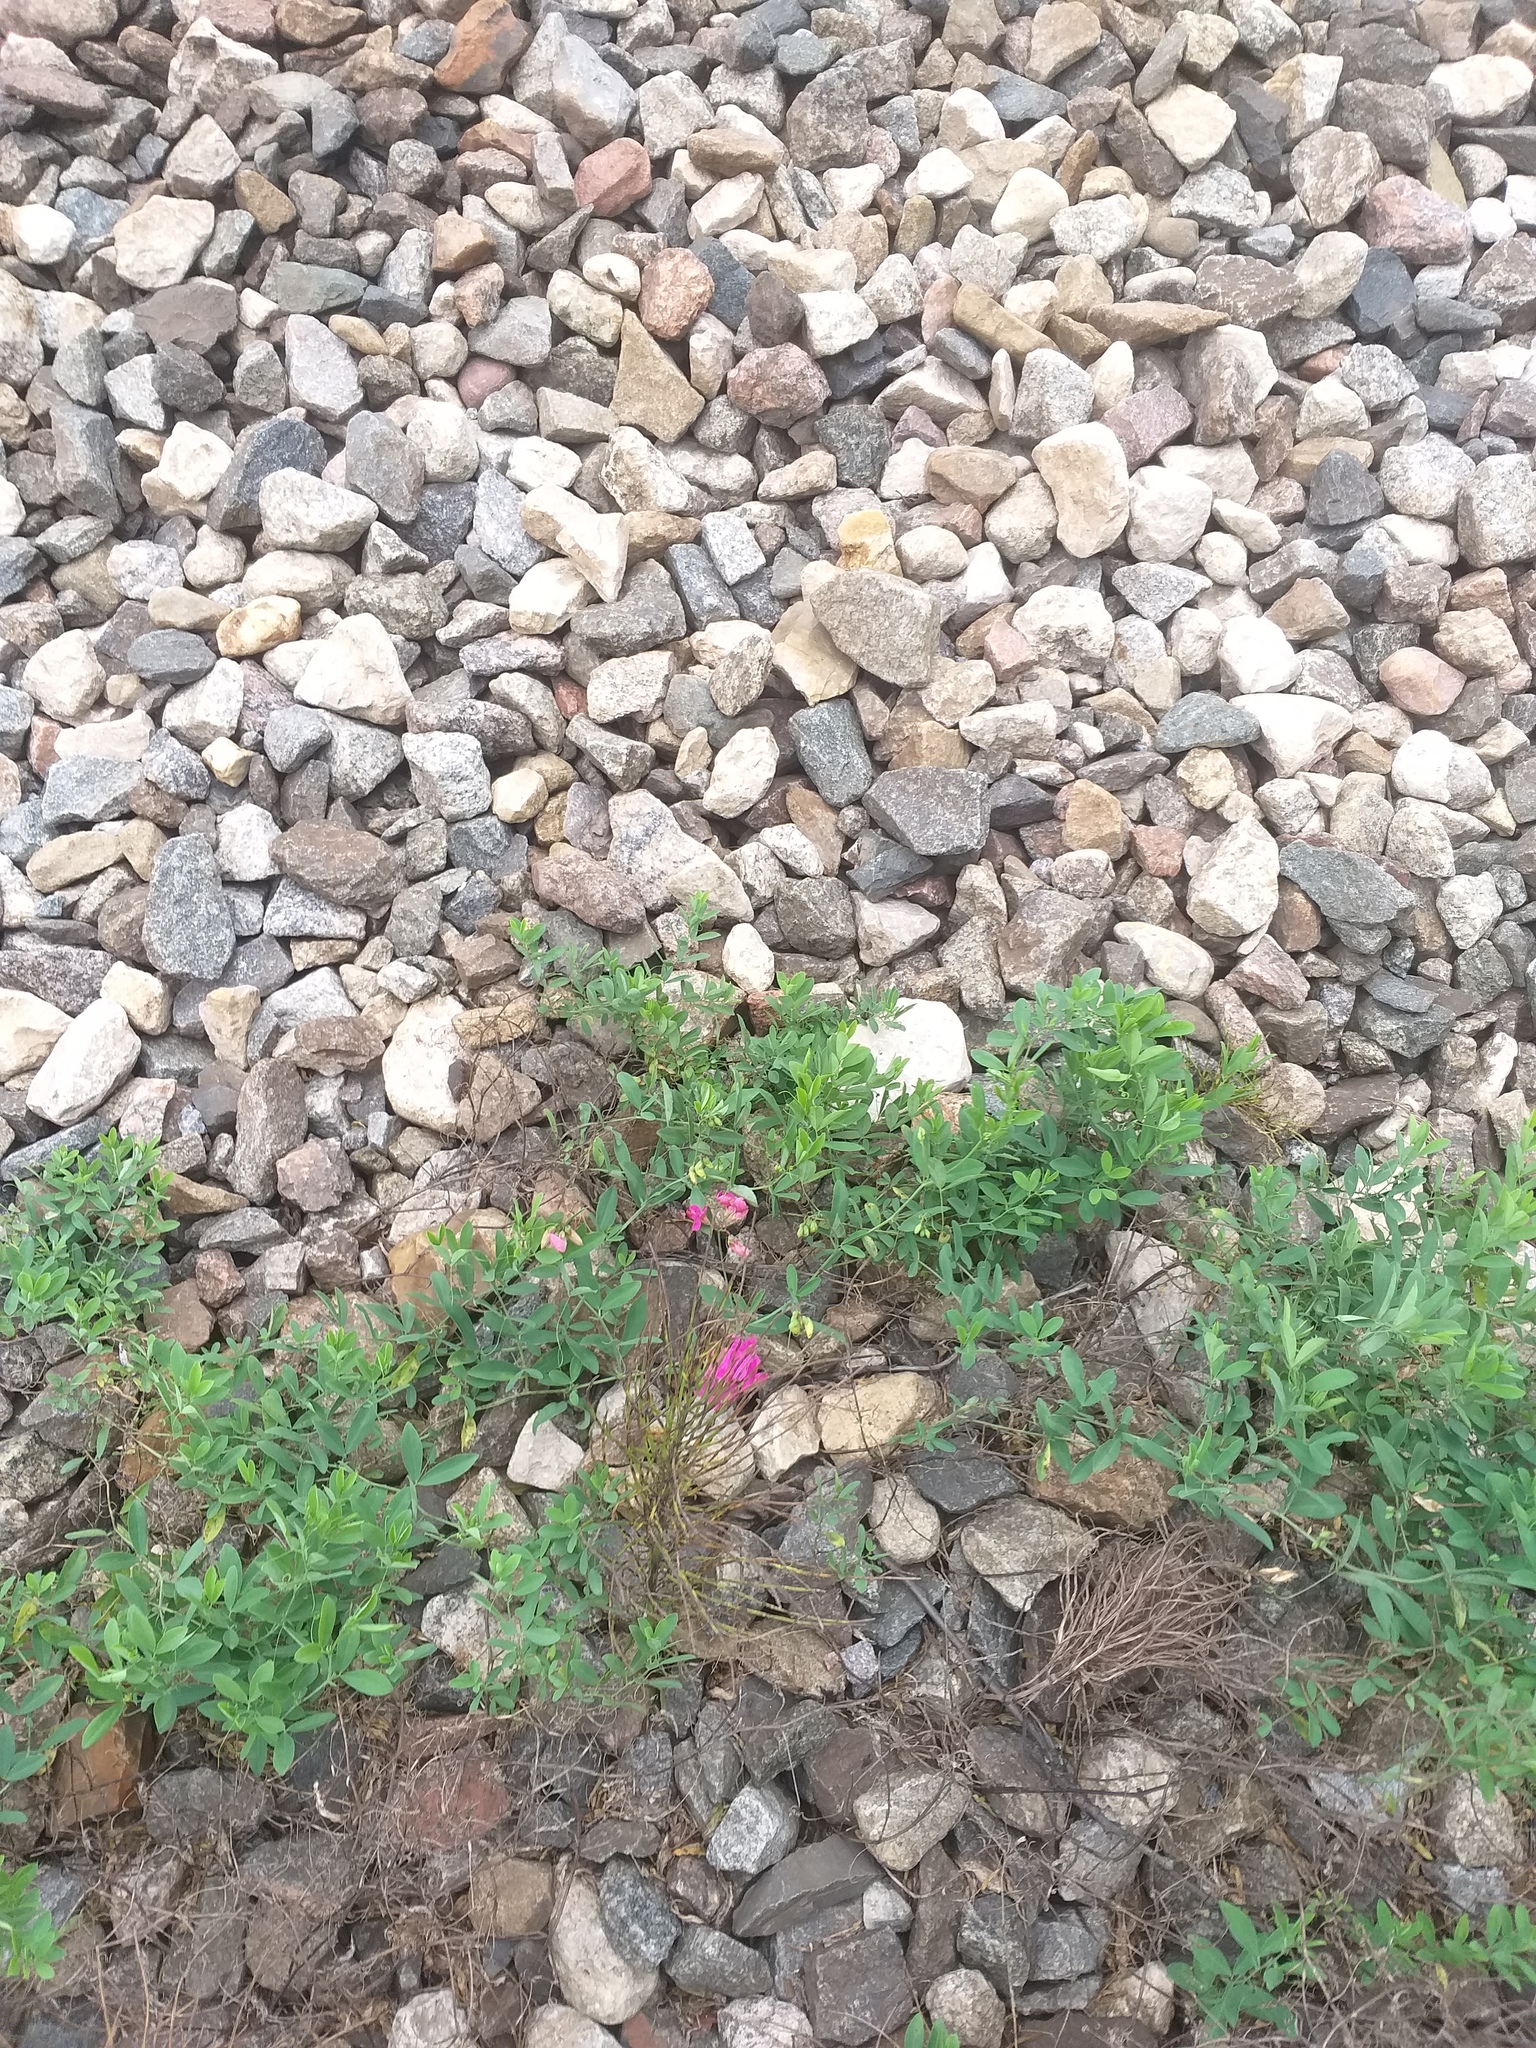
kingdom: Plantae
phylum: Tracheophyta
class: Magnoliopsida
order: Fabales
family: Fabaceae
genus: Lathyrus
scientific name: Lathyrus tuberosus
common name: Tuberous pea
